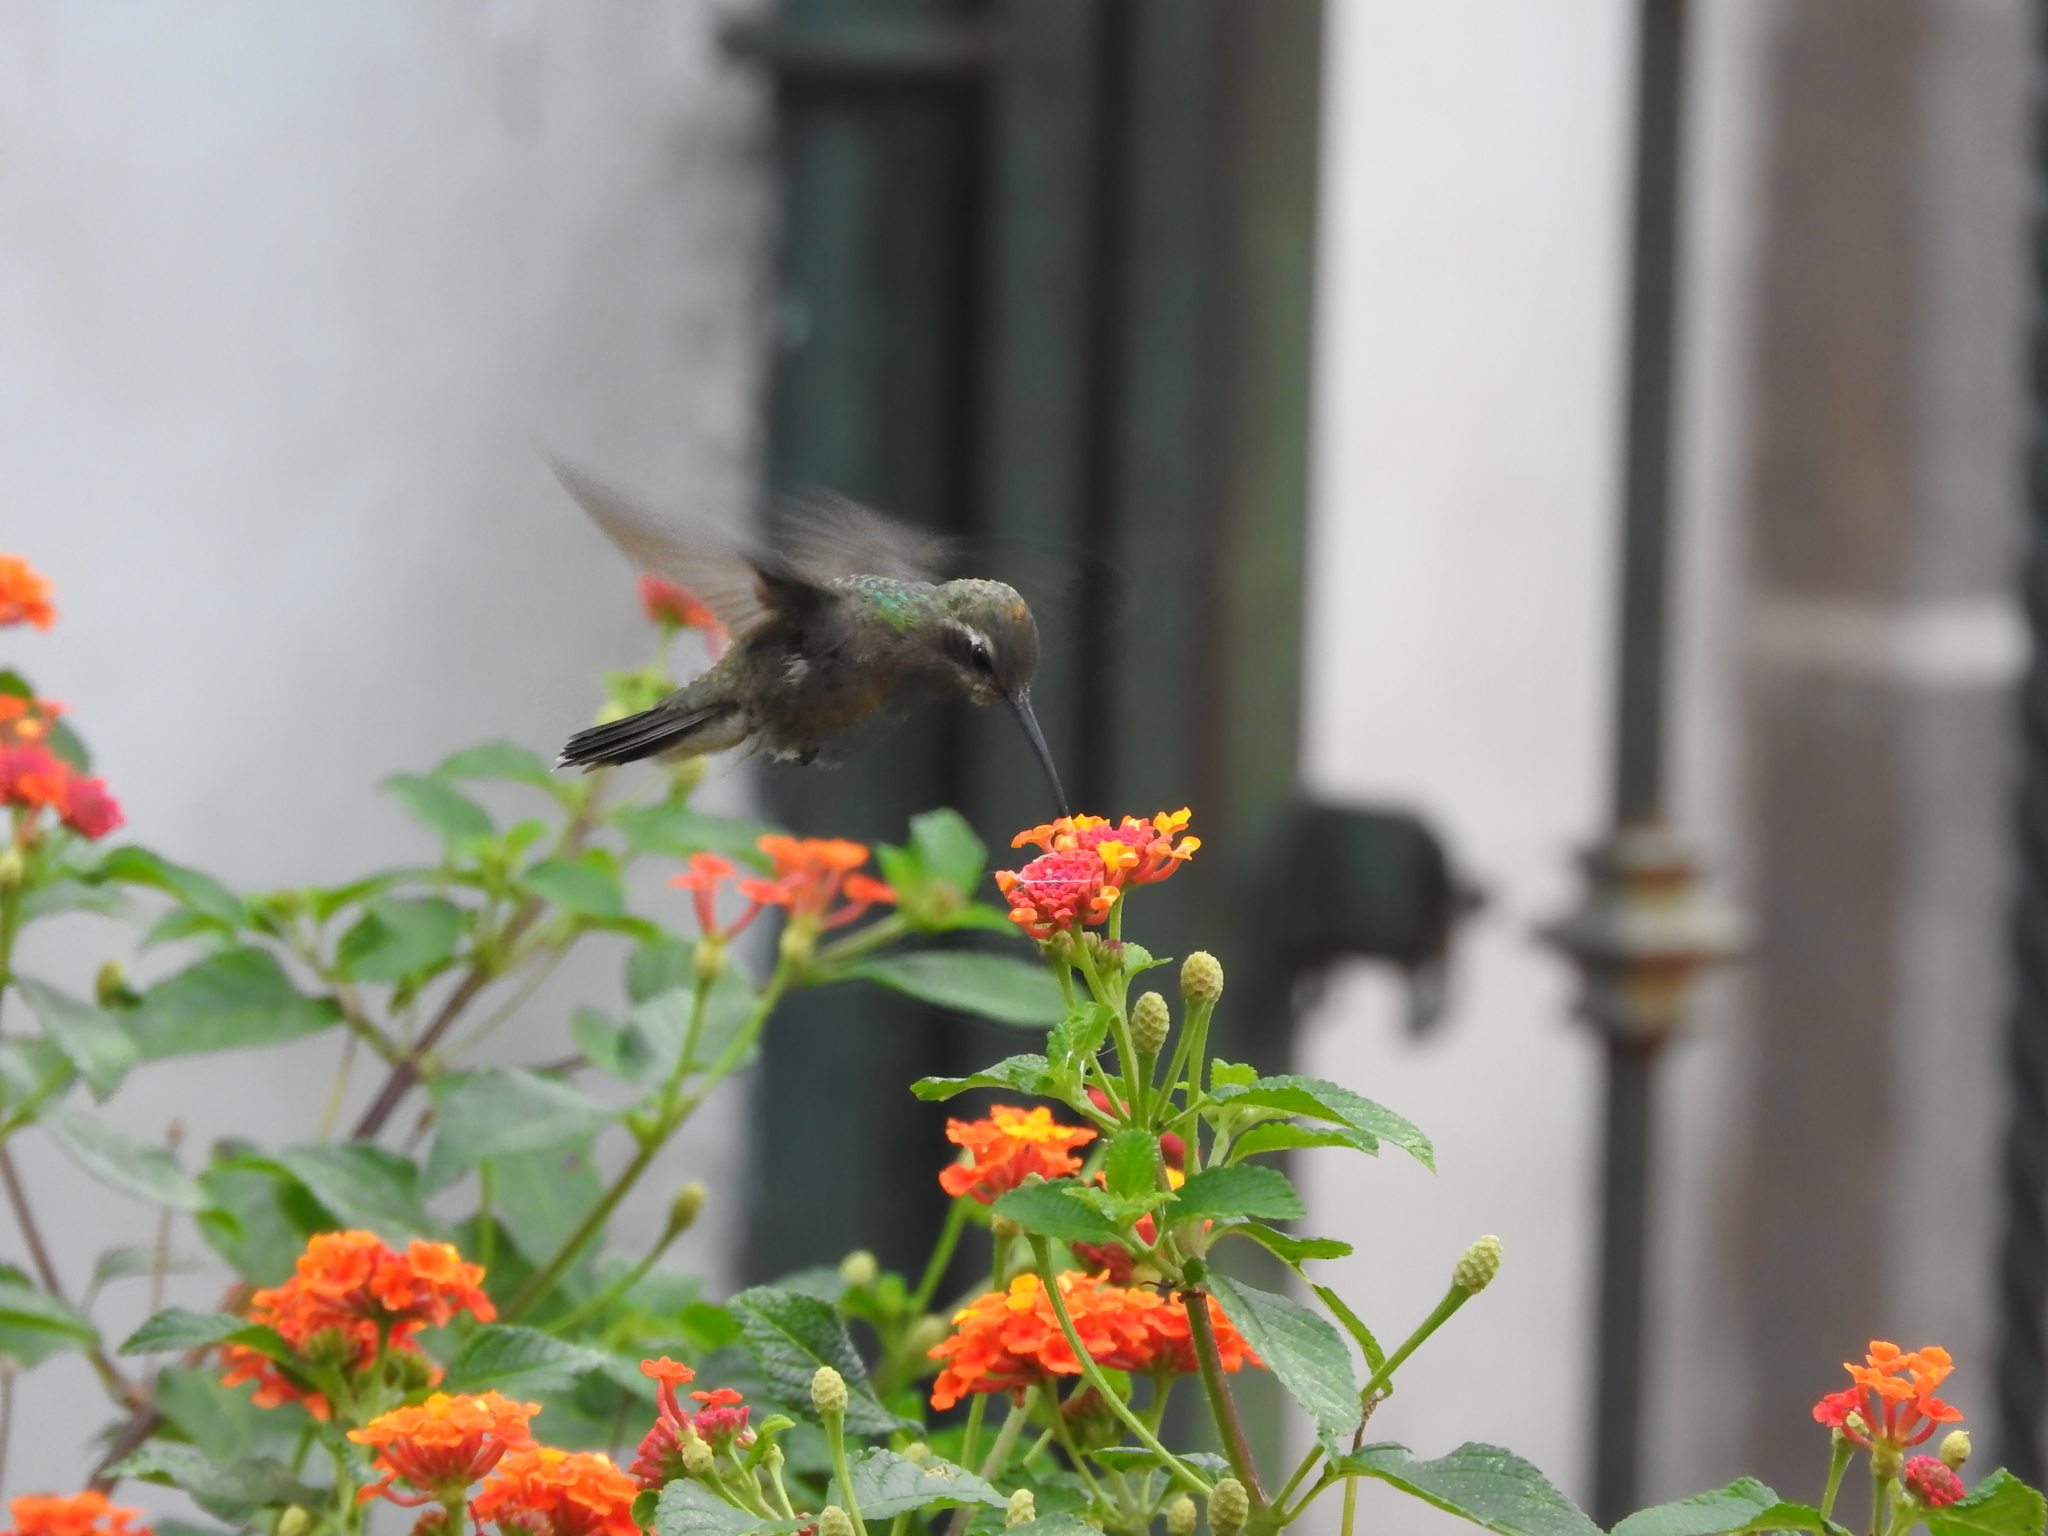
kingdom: Animalia
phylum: Chordata
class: Aves
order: Apodiformes
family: Trochilidae
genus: Cynanthus
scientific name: Cynanthus latirostris
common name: Broad-billed hummingbird
